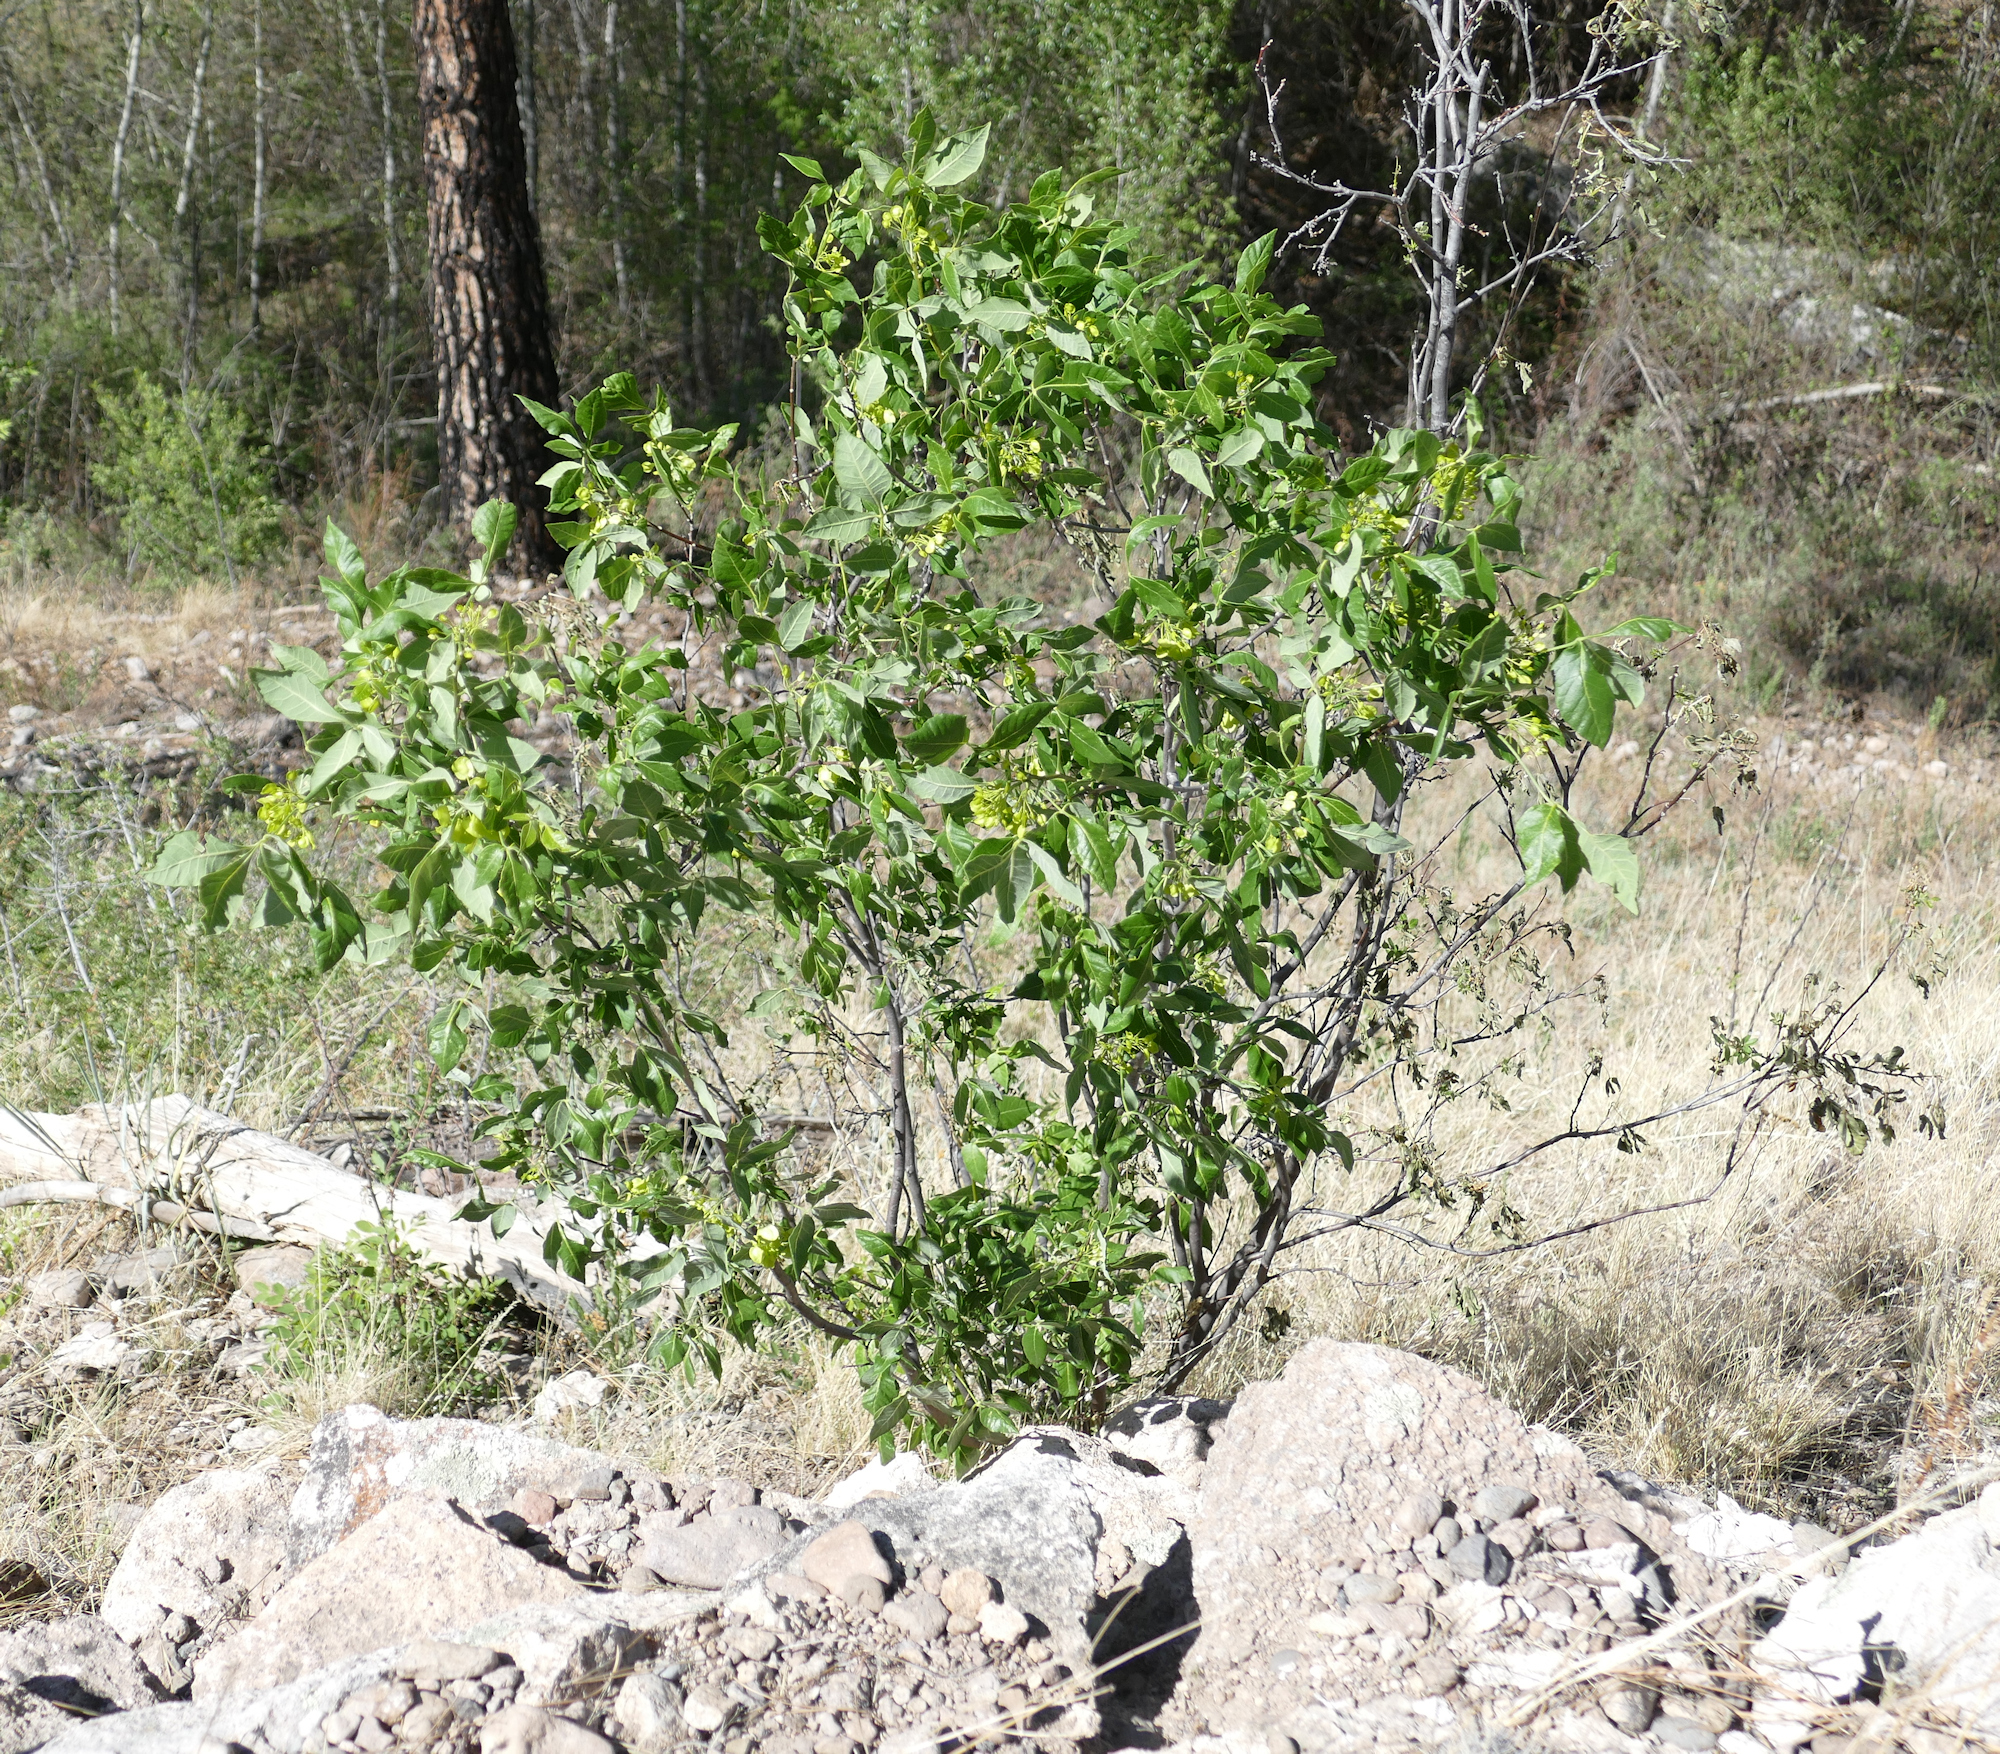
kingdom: Plantae
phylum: Tracheophyta
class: Magnoliopsida
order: Sapindales
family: Rutaceae
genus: Ptelea
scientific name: Ptelea trifoliata
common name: Common hop-tree
